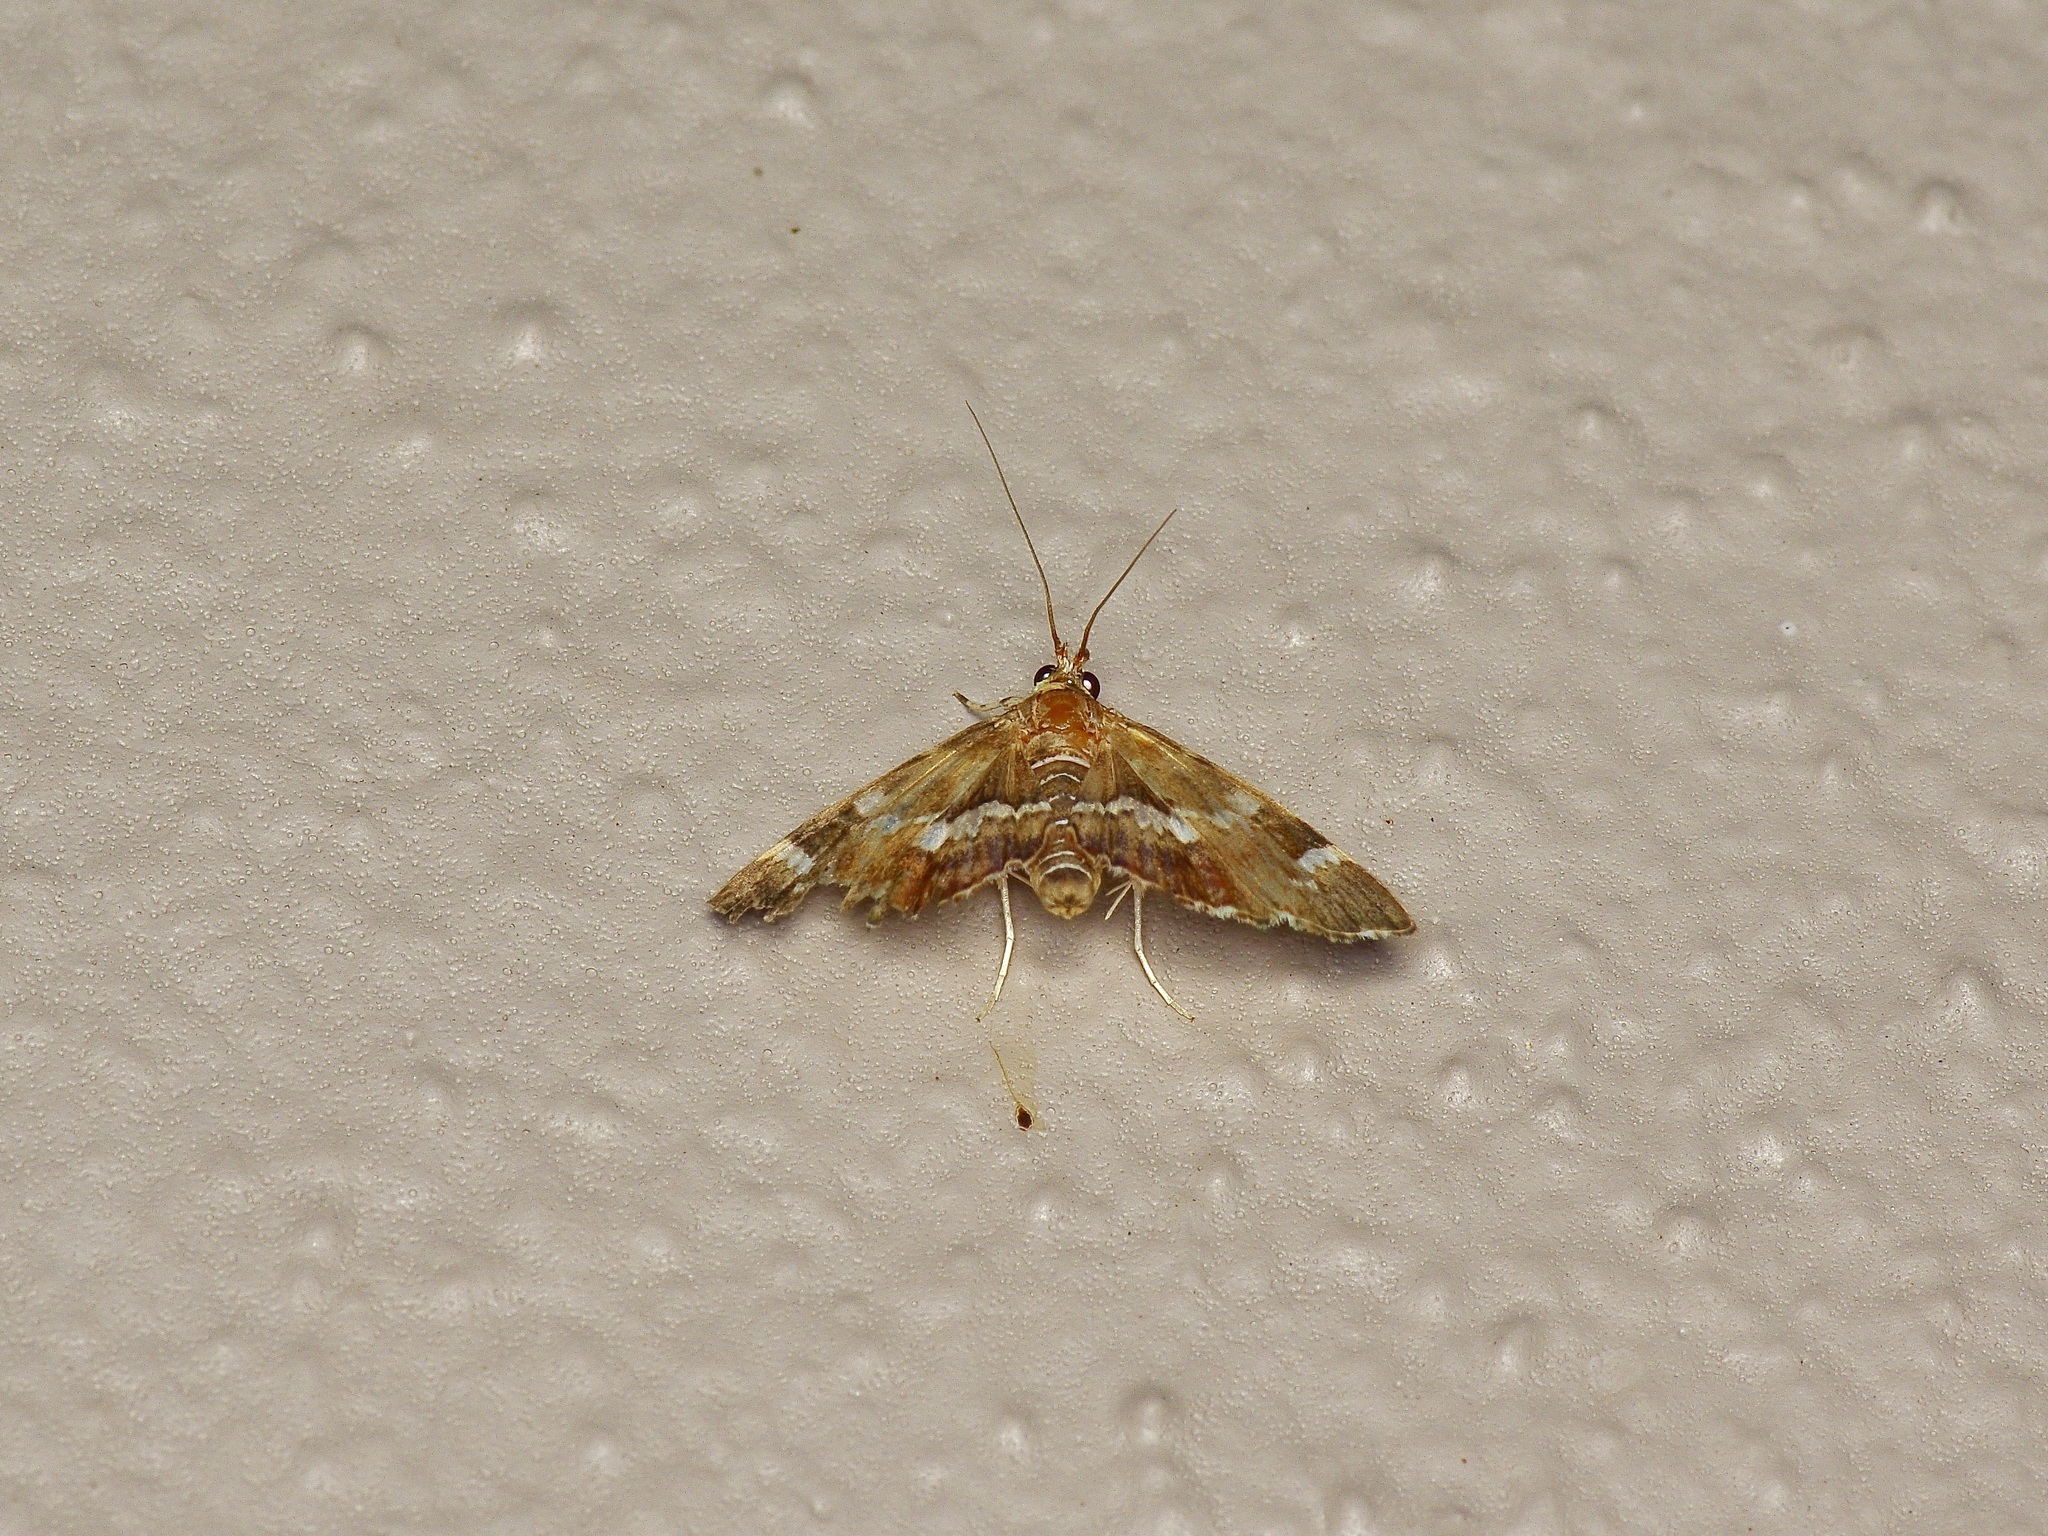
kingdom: Animalia
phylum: Arthropoda
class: Insecta
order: Lepidoptera
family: Crambidae
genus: Hymenia
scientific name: Hymenia perspectalis
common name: Spotted beet webworm
